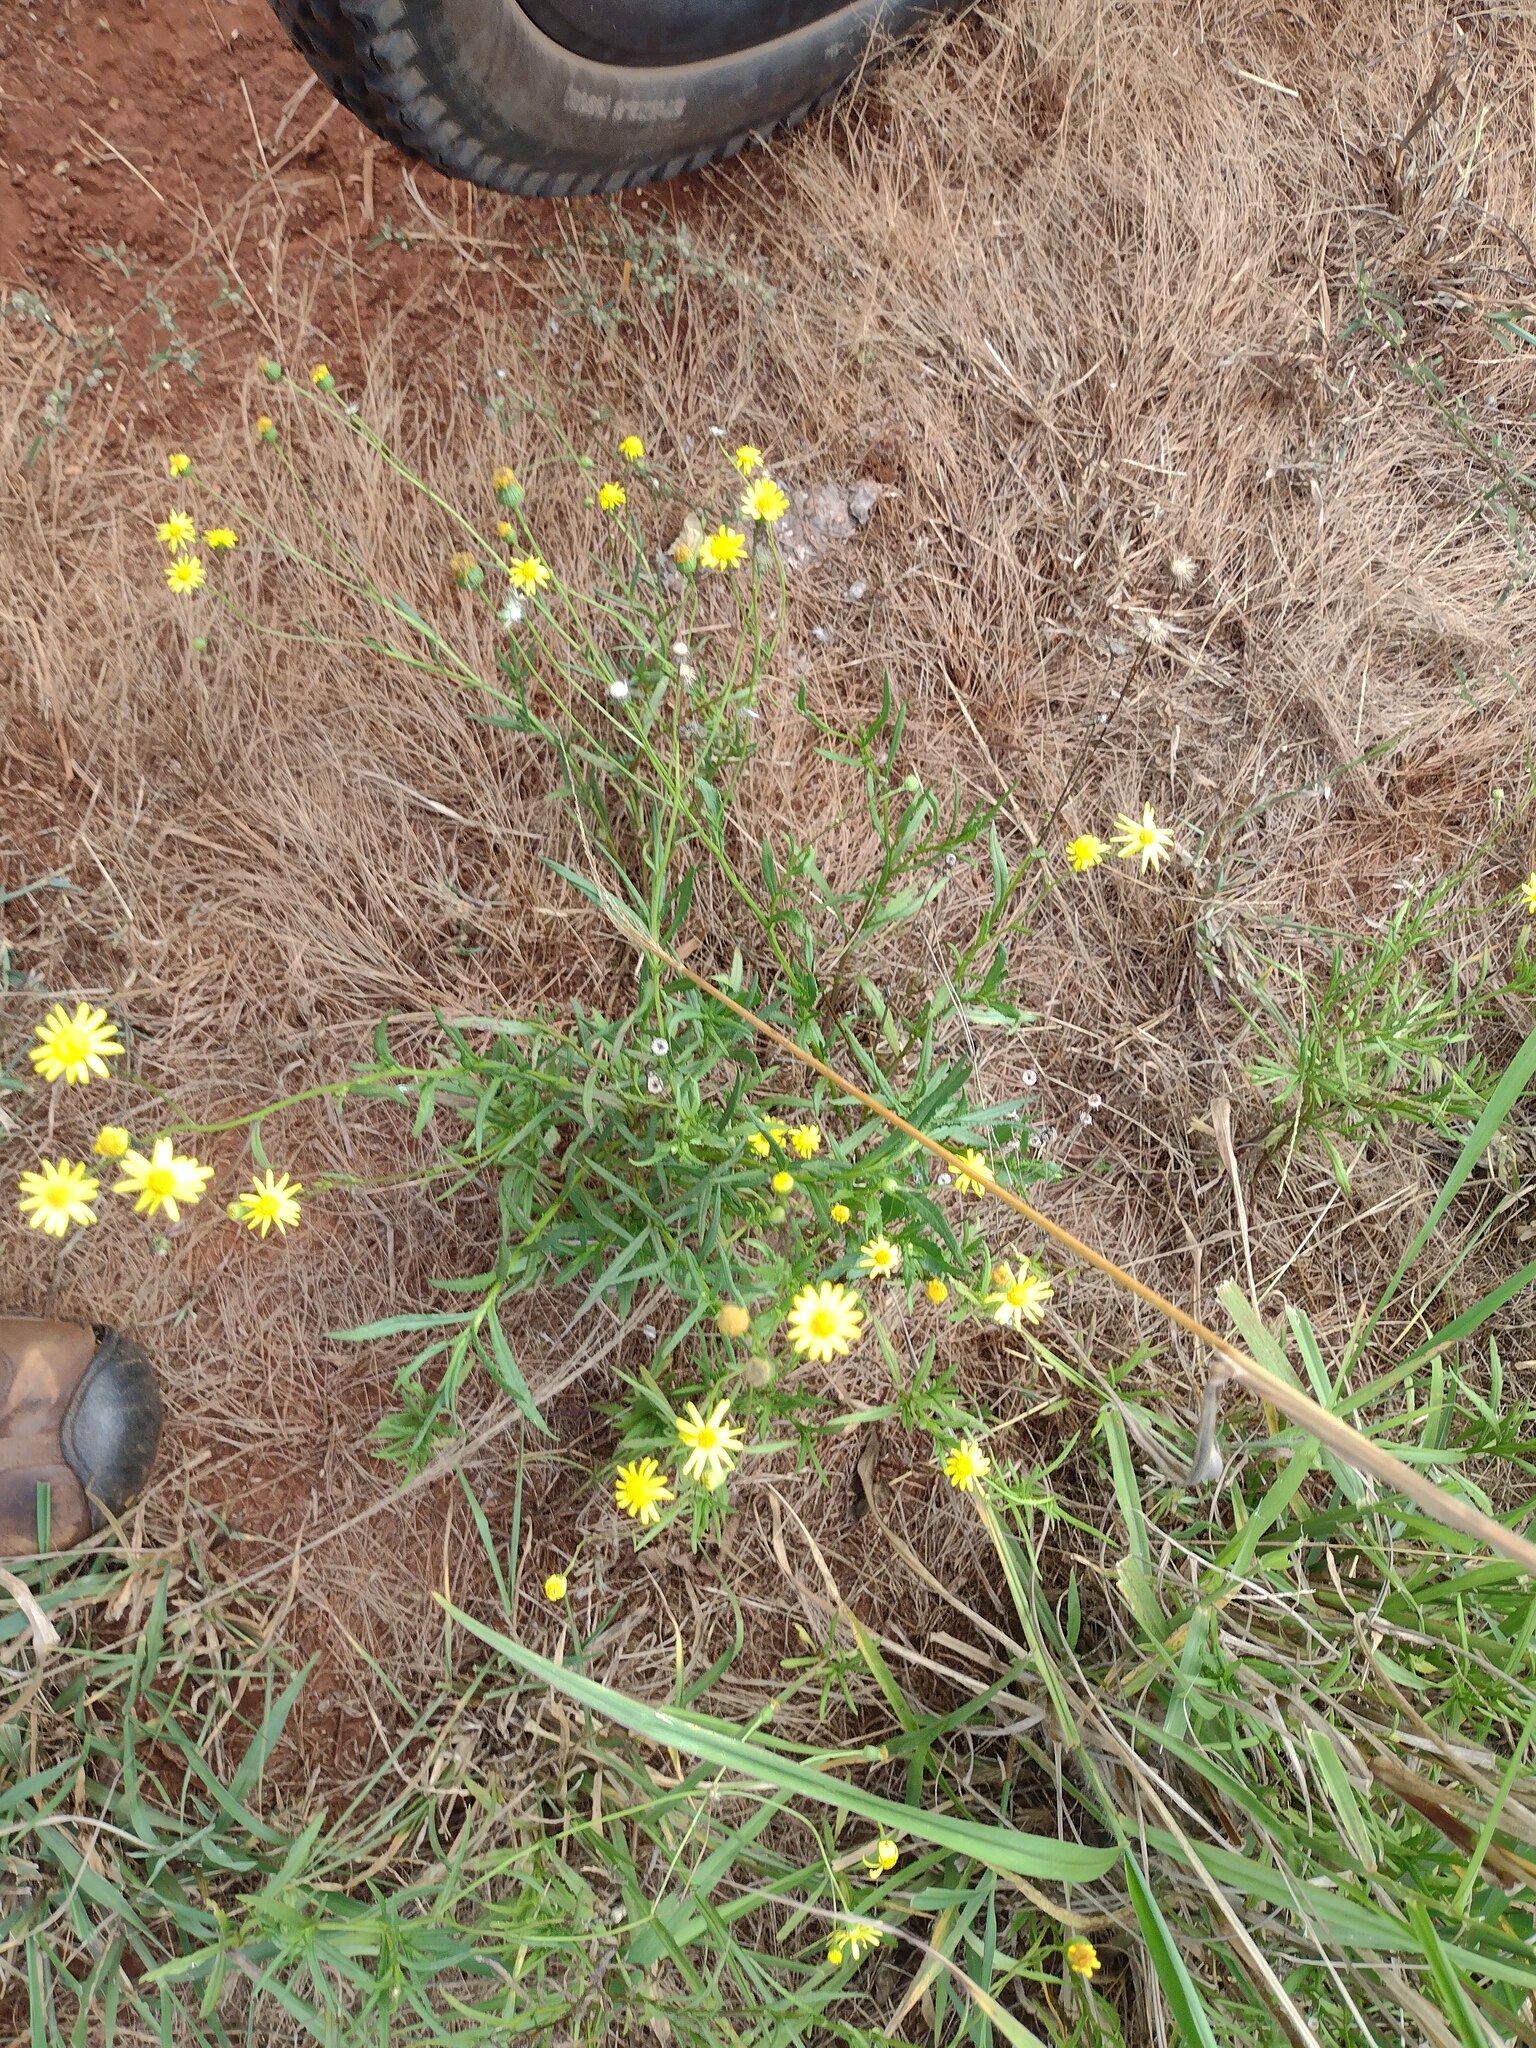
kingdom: Plantae
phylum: Tracheophyta
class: Magnoliopsida
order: Asterales
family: Asteraceae
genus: Senecio
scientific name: Senecio madagascariensis
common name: Madagascar ragwort
